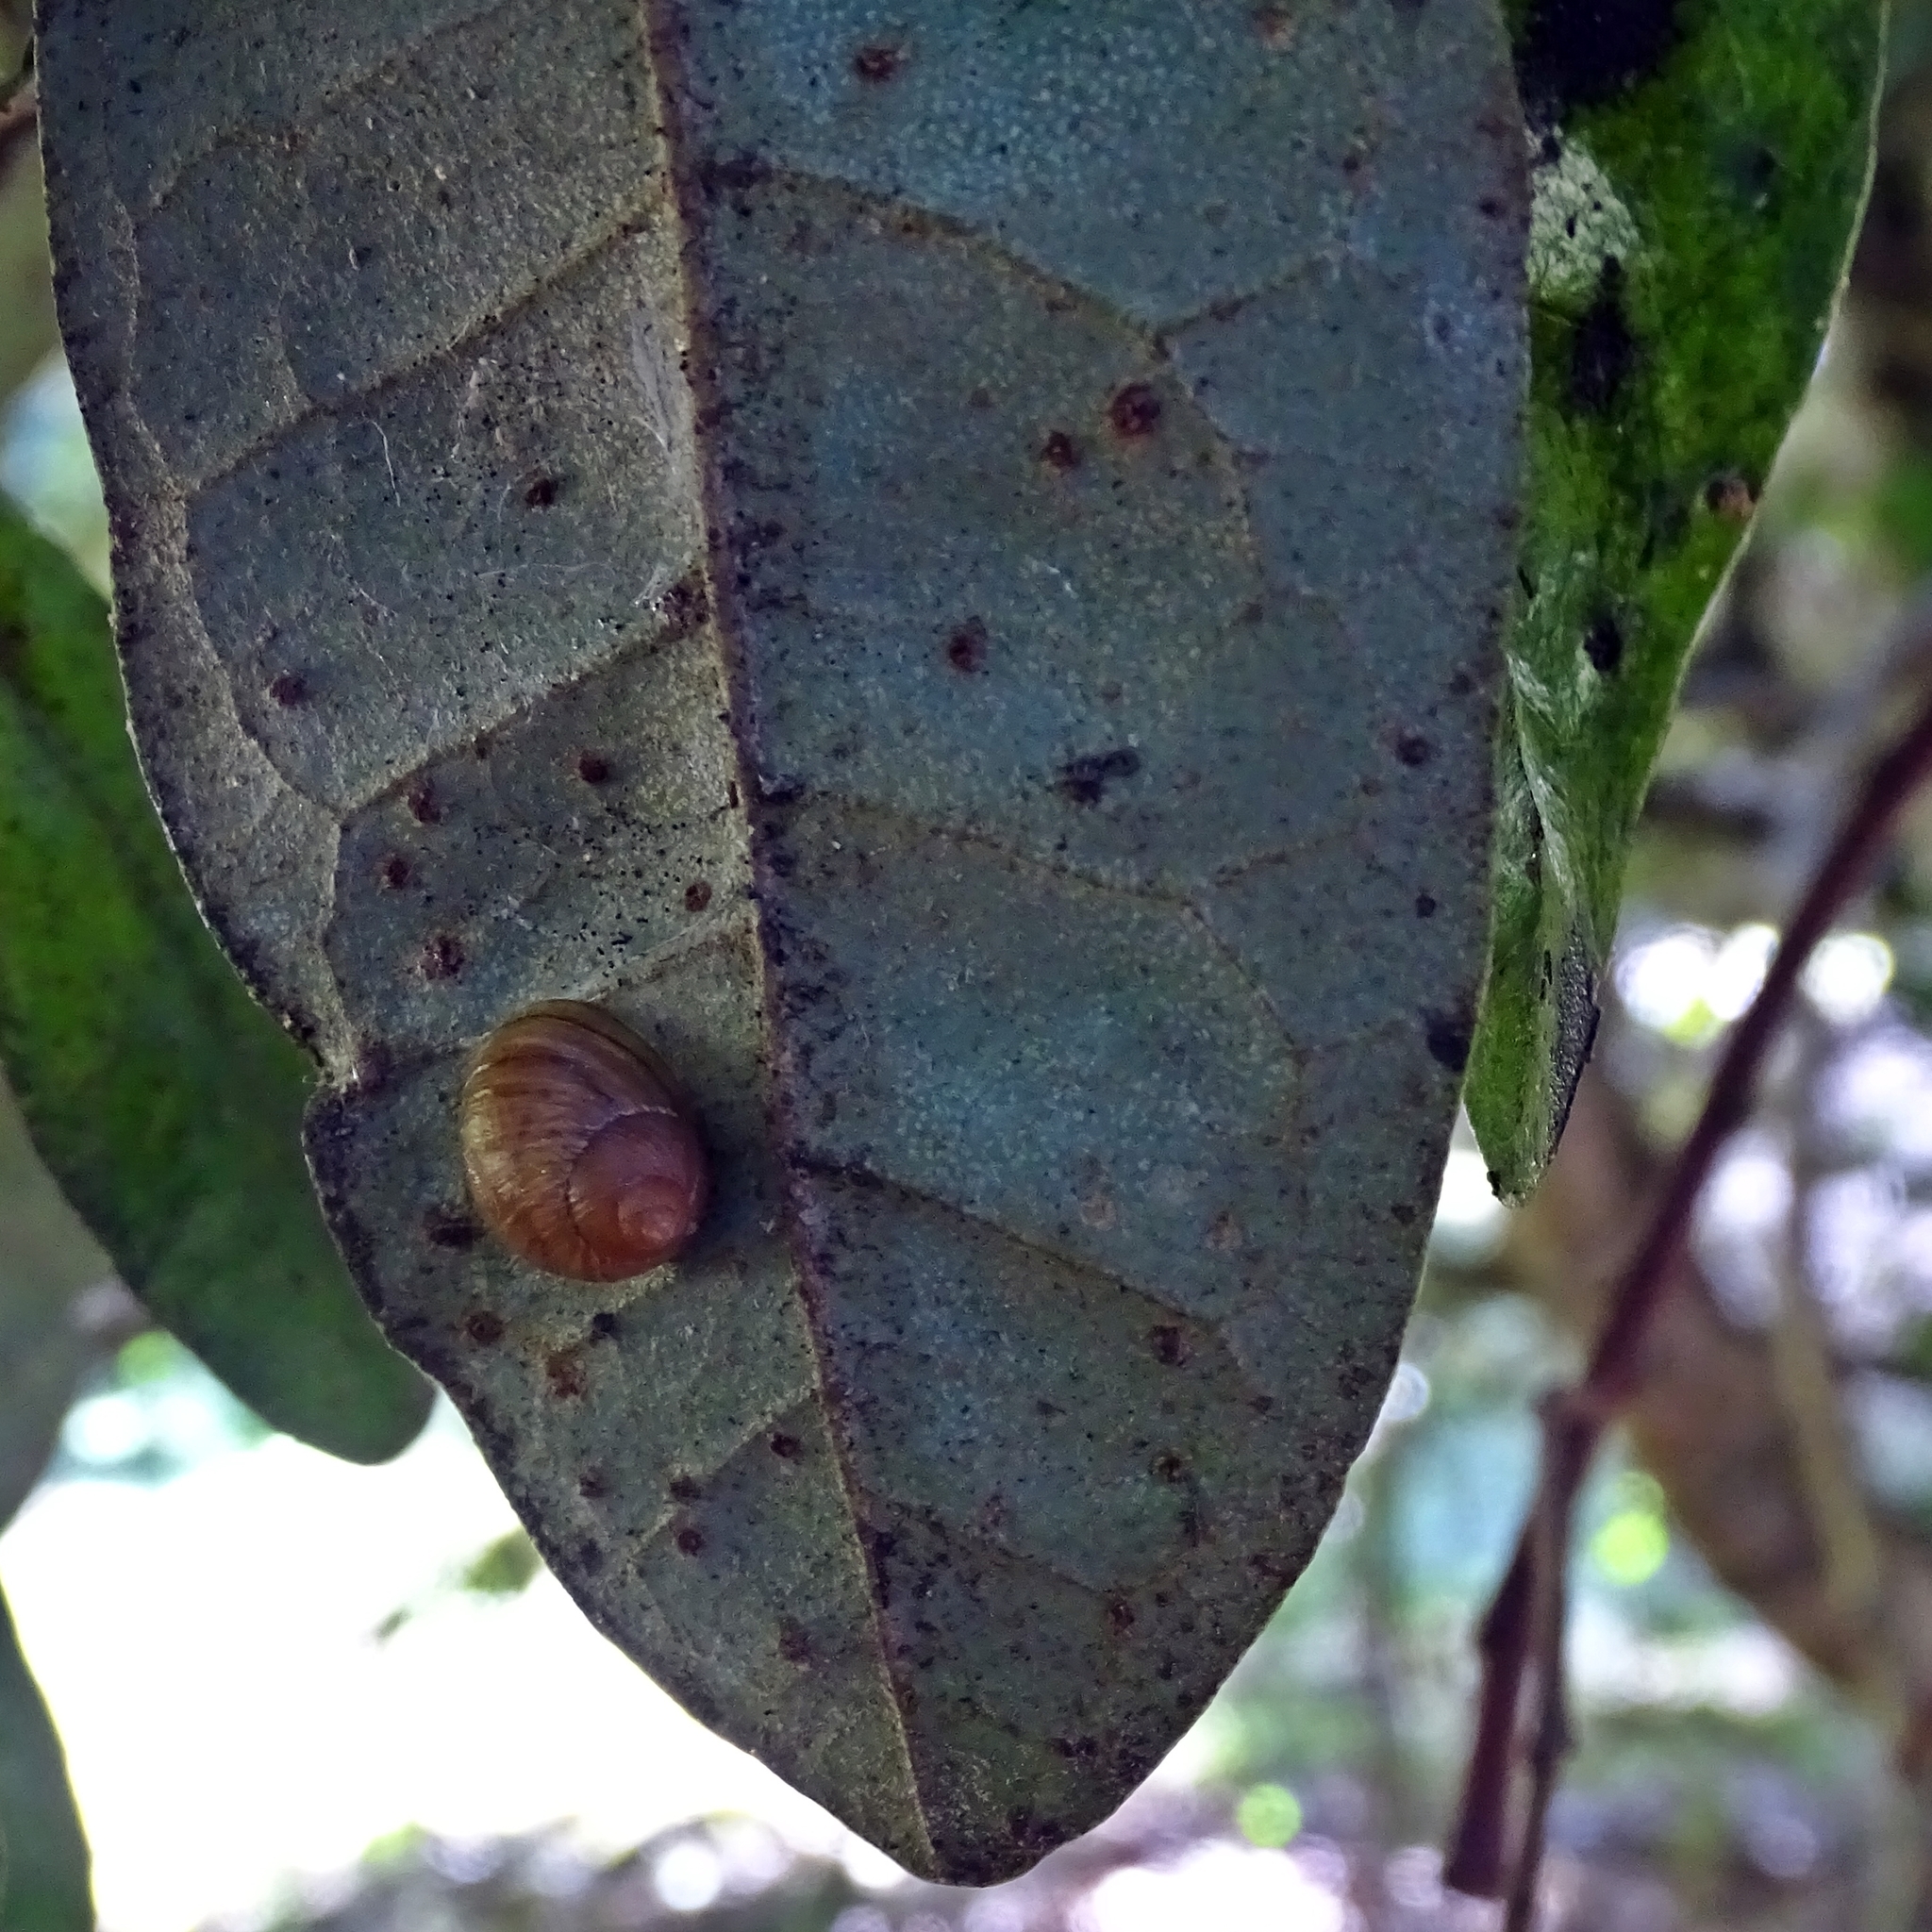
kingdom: Animalia
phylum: Mollusca
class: Gastropoda
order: Stylommatophora
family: Bothriembryontidae
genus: Plectostylus
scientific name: Plectostylus araucanus
